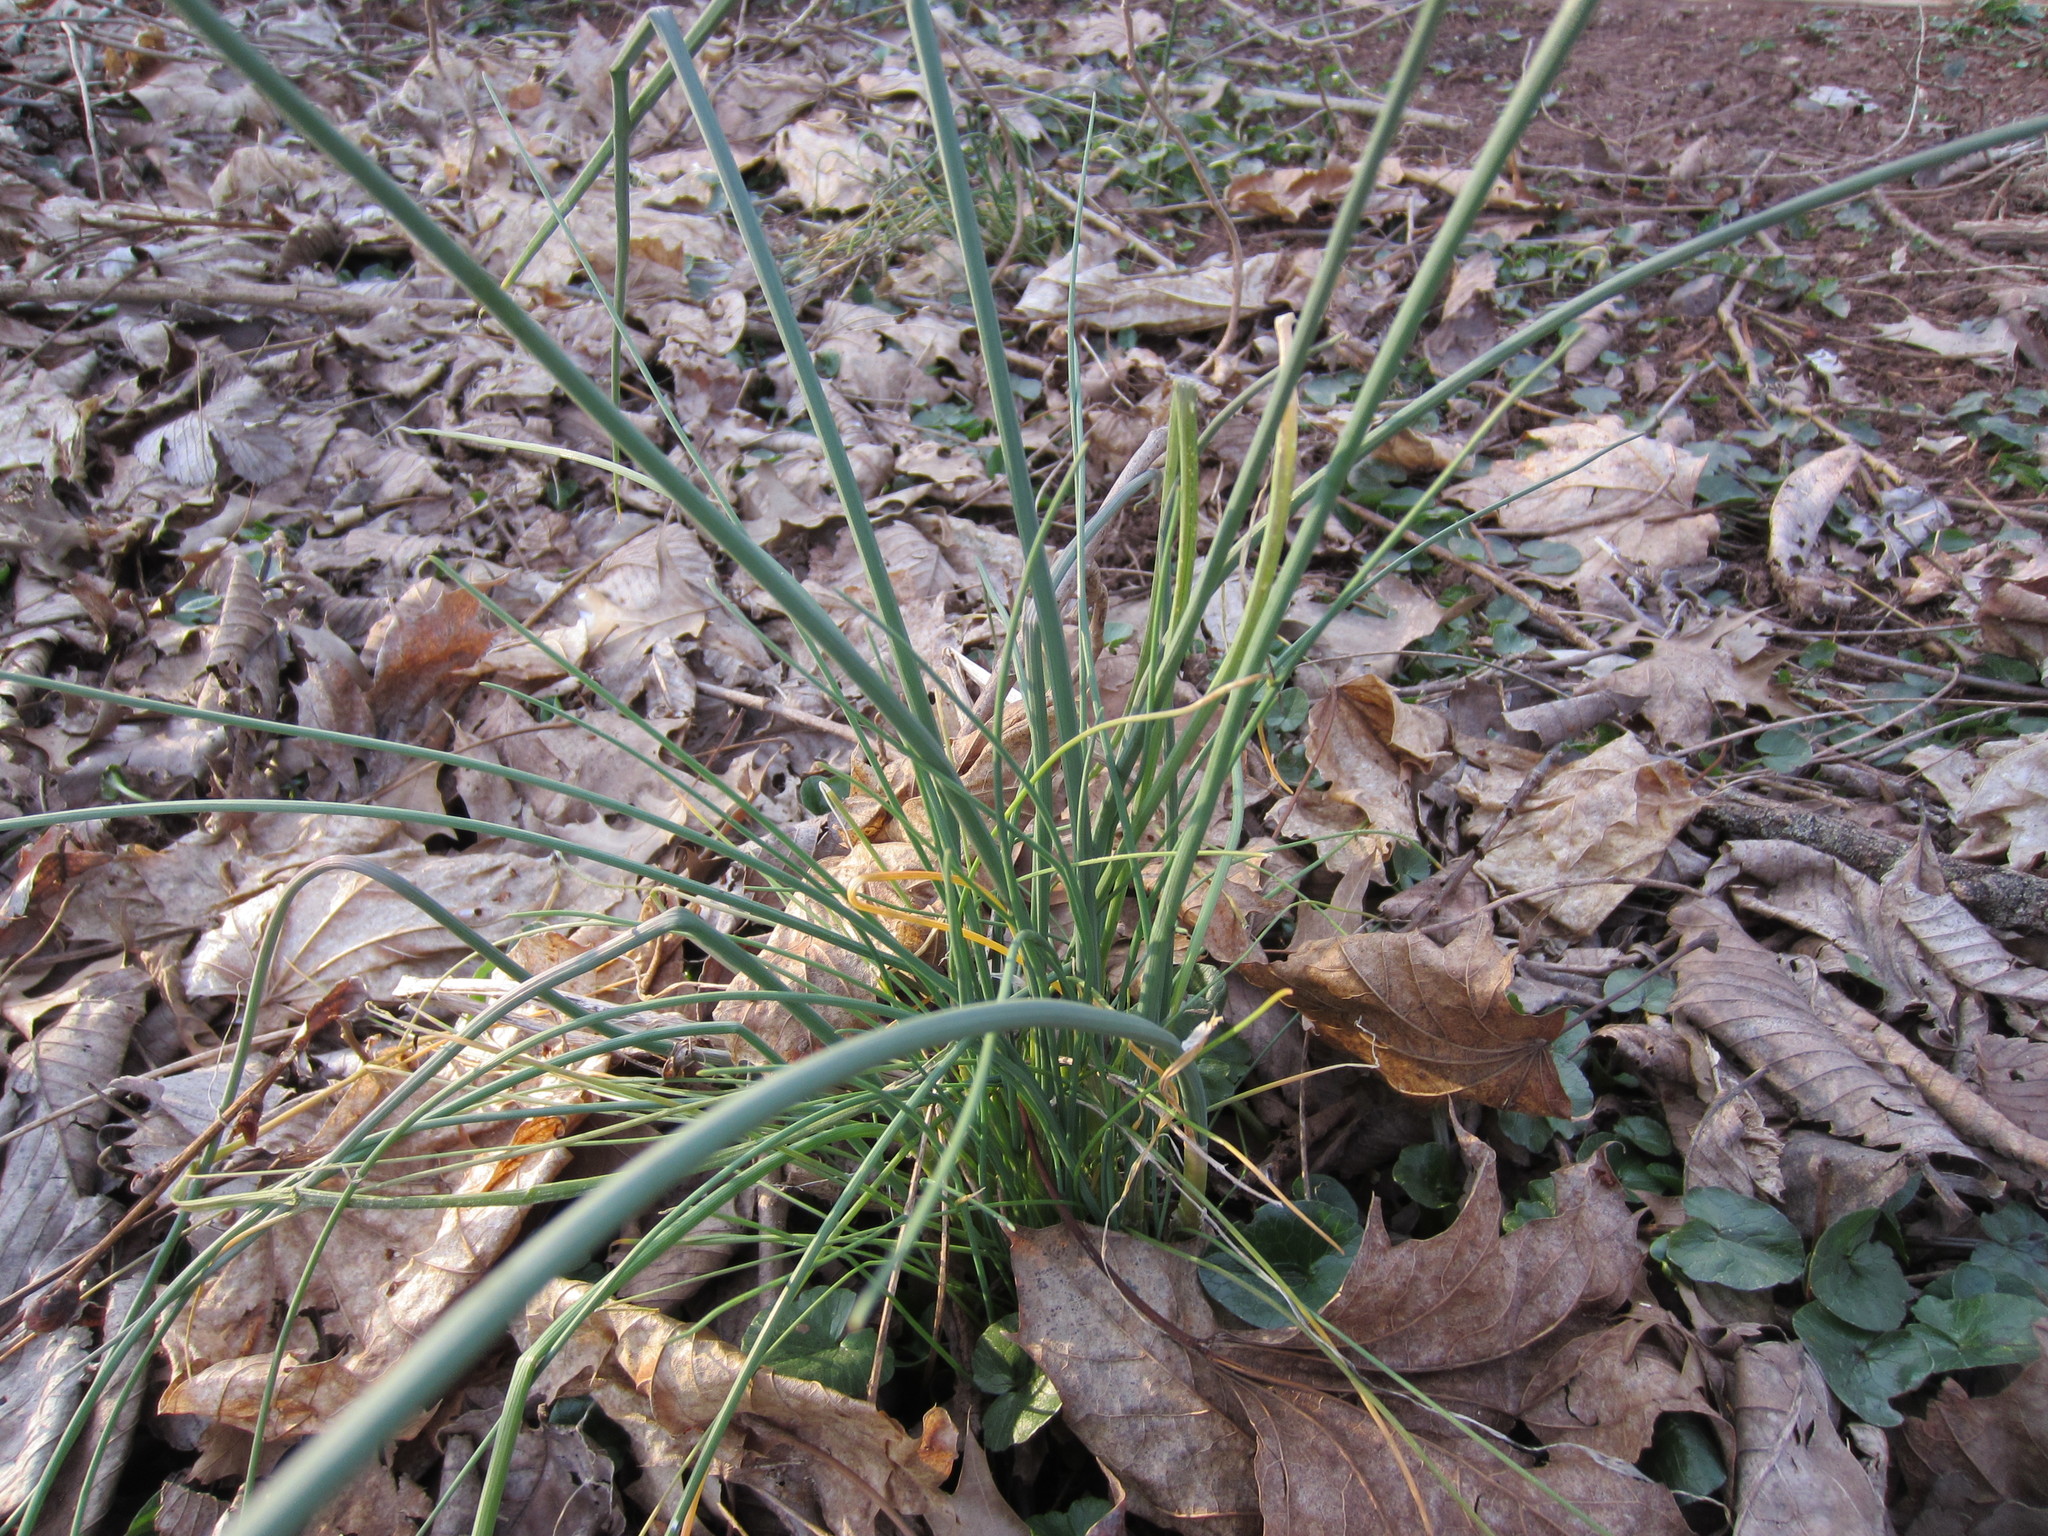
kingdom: Plantae
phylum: Tracheophyta
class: Liliopsida
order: Asparagales
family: Amaryllidaceae
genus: Allium
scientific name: Allium vineale
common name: Crow garlic
